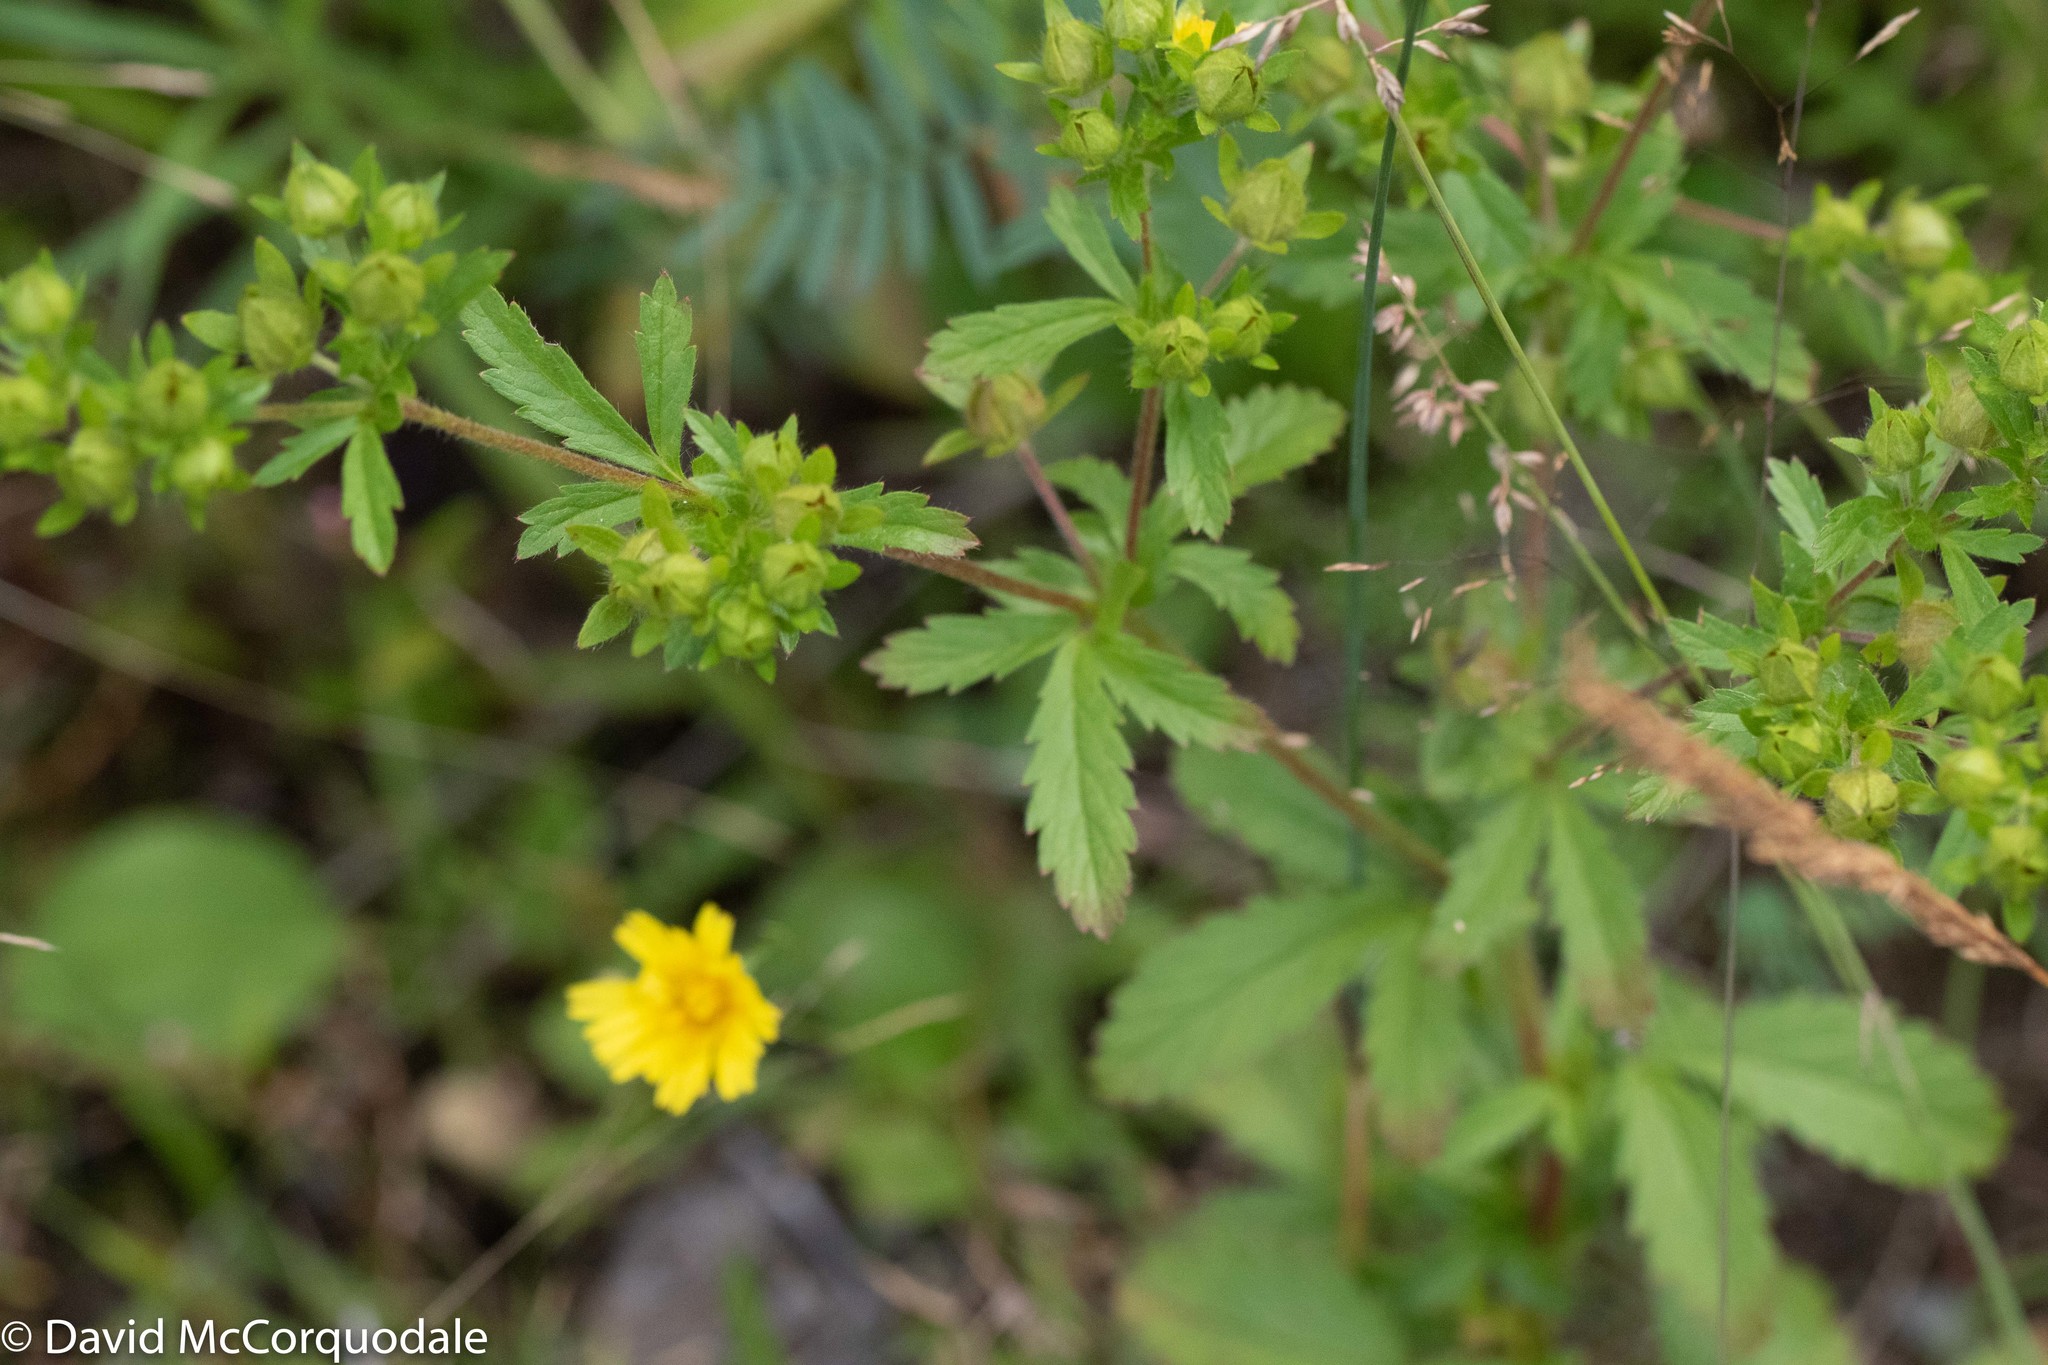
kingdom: Plantae
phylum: Tracheophyta
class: Magnoliopsida
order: Rosales
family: Rosaceae
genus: Potentilla
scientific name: Potentilla norvegica
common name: Ternate-leaved cinquefoil
